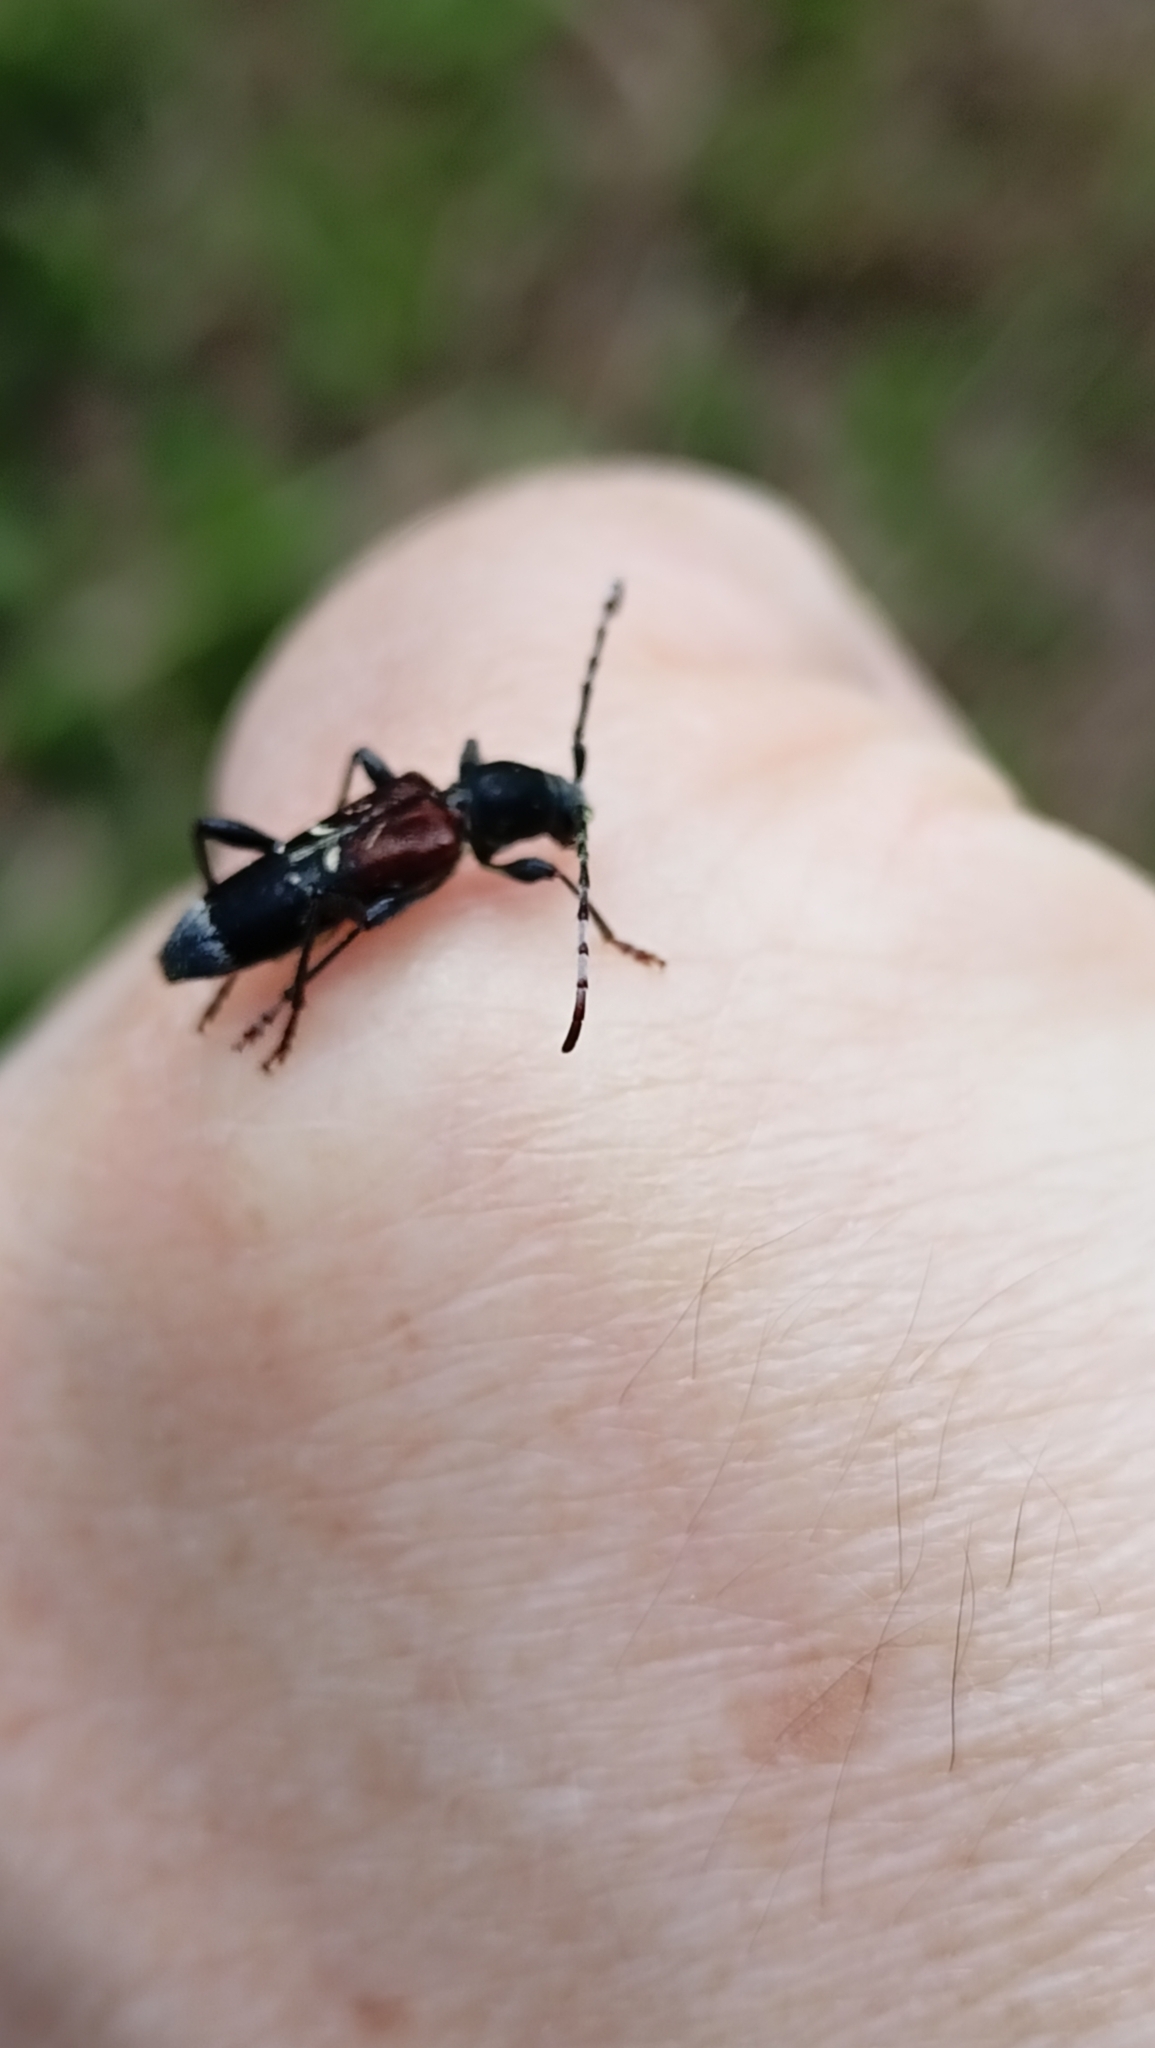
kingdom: Animalia
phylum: Arthropoda
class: Insecta
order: Coleoptera
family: Cerambycidae
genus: Anaglyptus
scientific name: Anaglyptus mysticus
